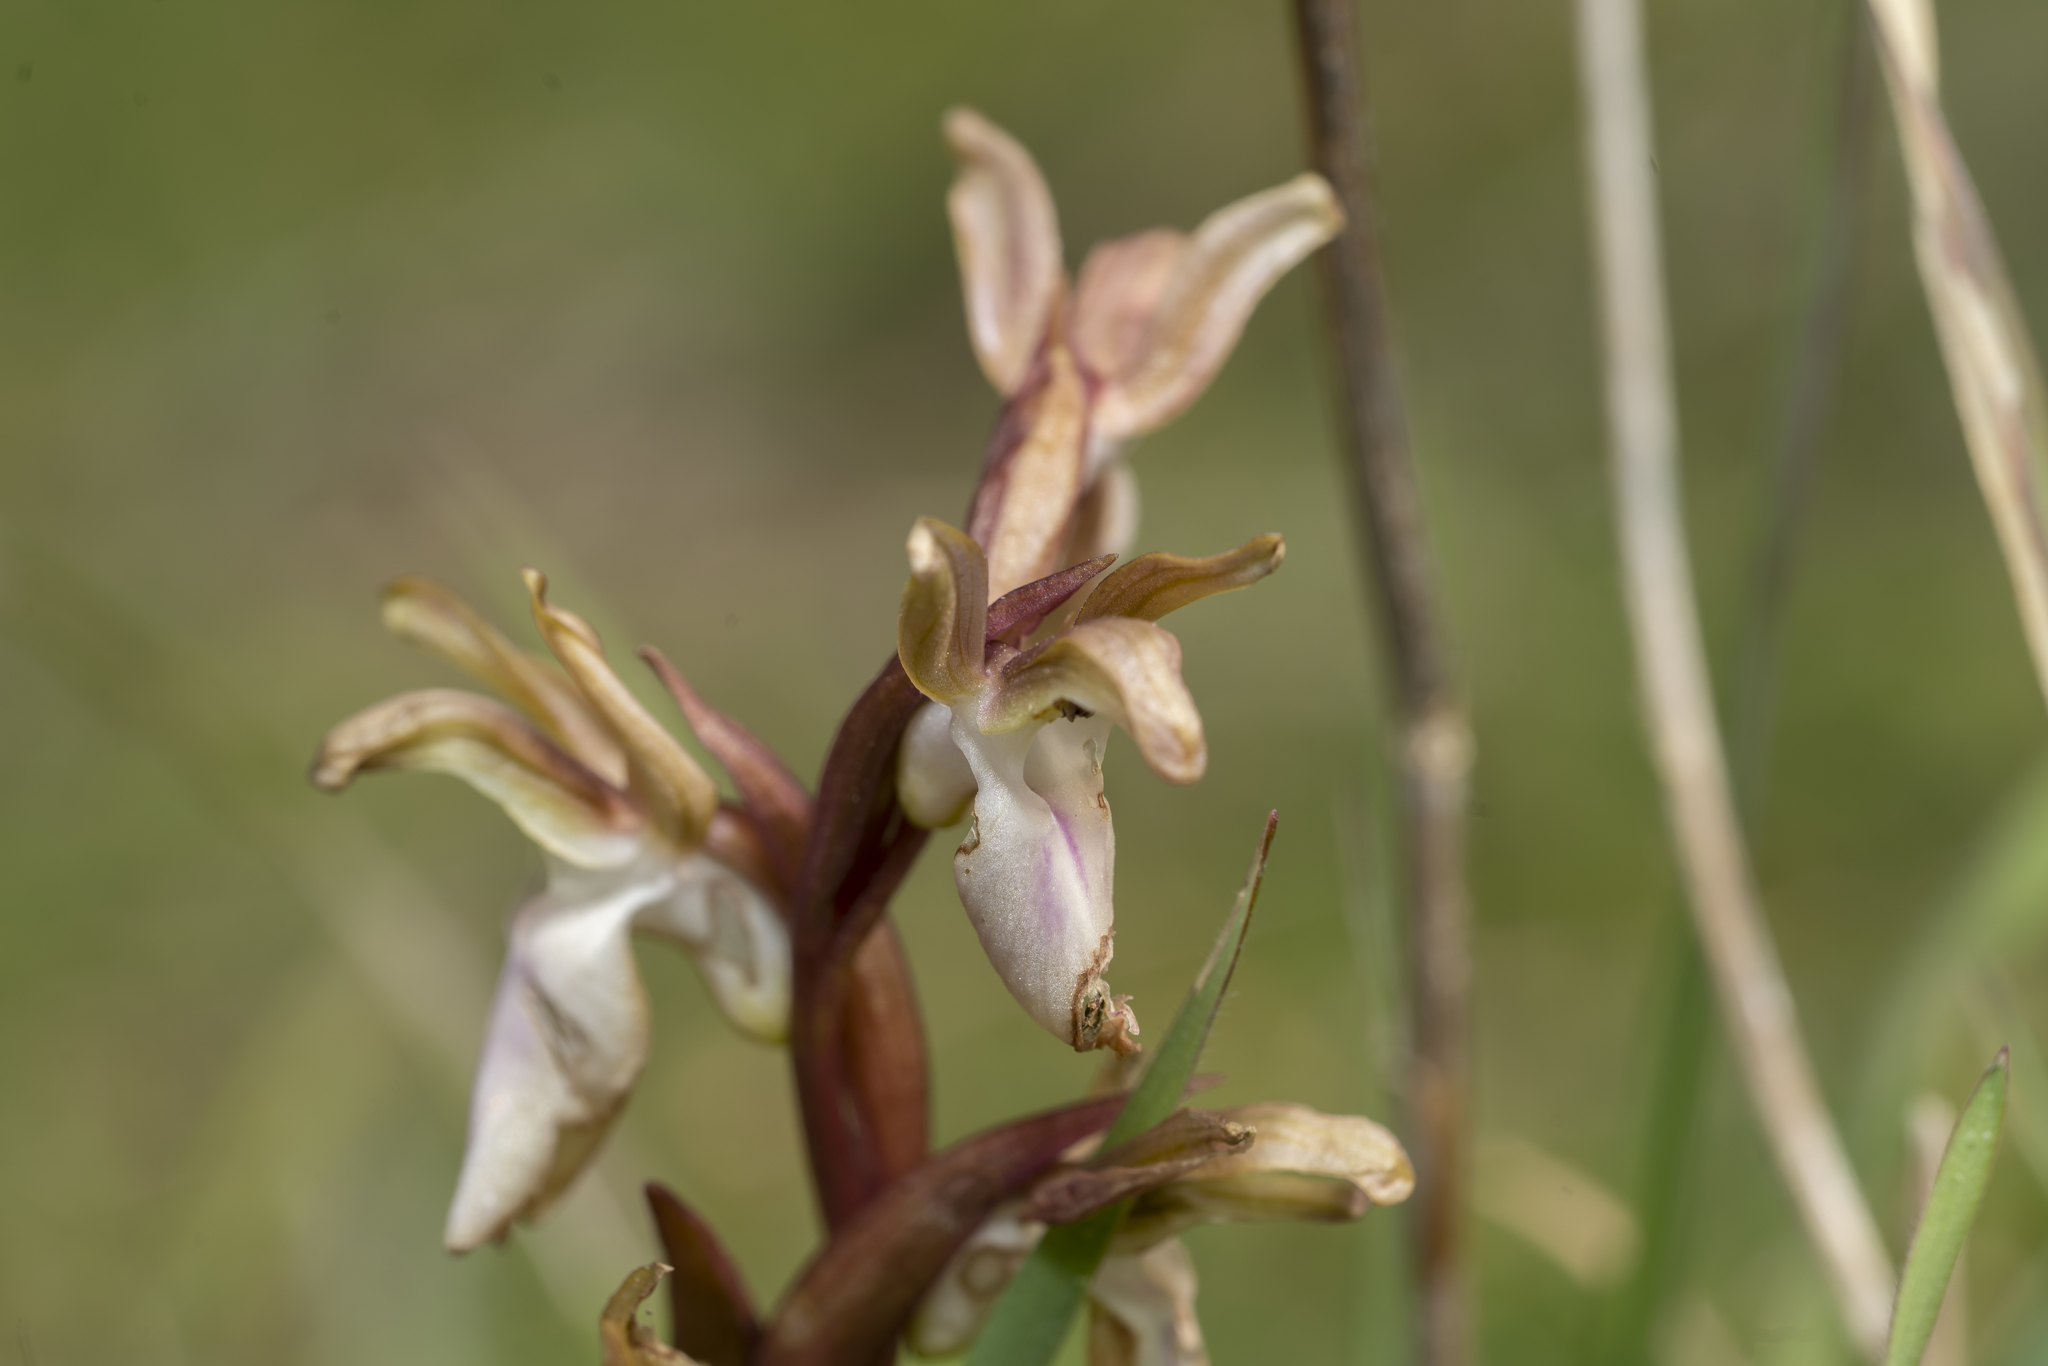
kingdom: Plantae
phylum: Tracheophyta
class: Liliopsida
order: Asparagales
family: Orchidaceae
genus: Anacamptis
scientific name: Anacamptis collina
